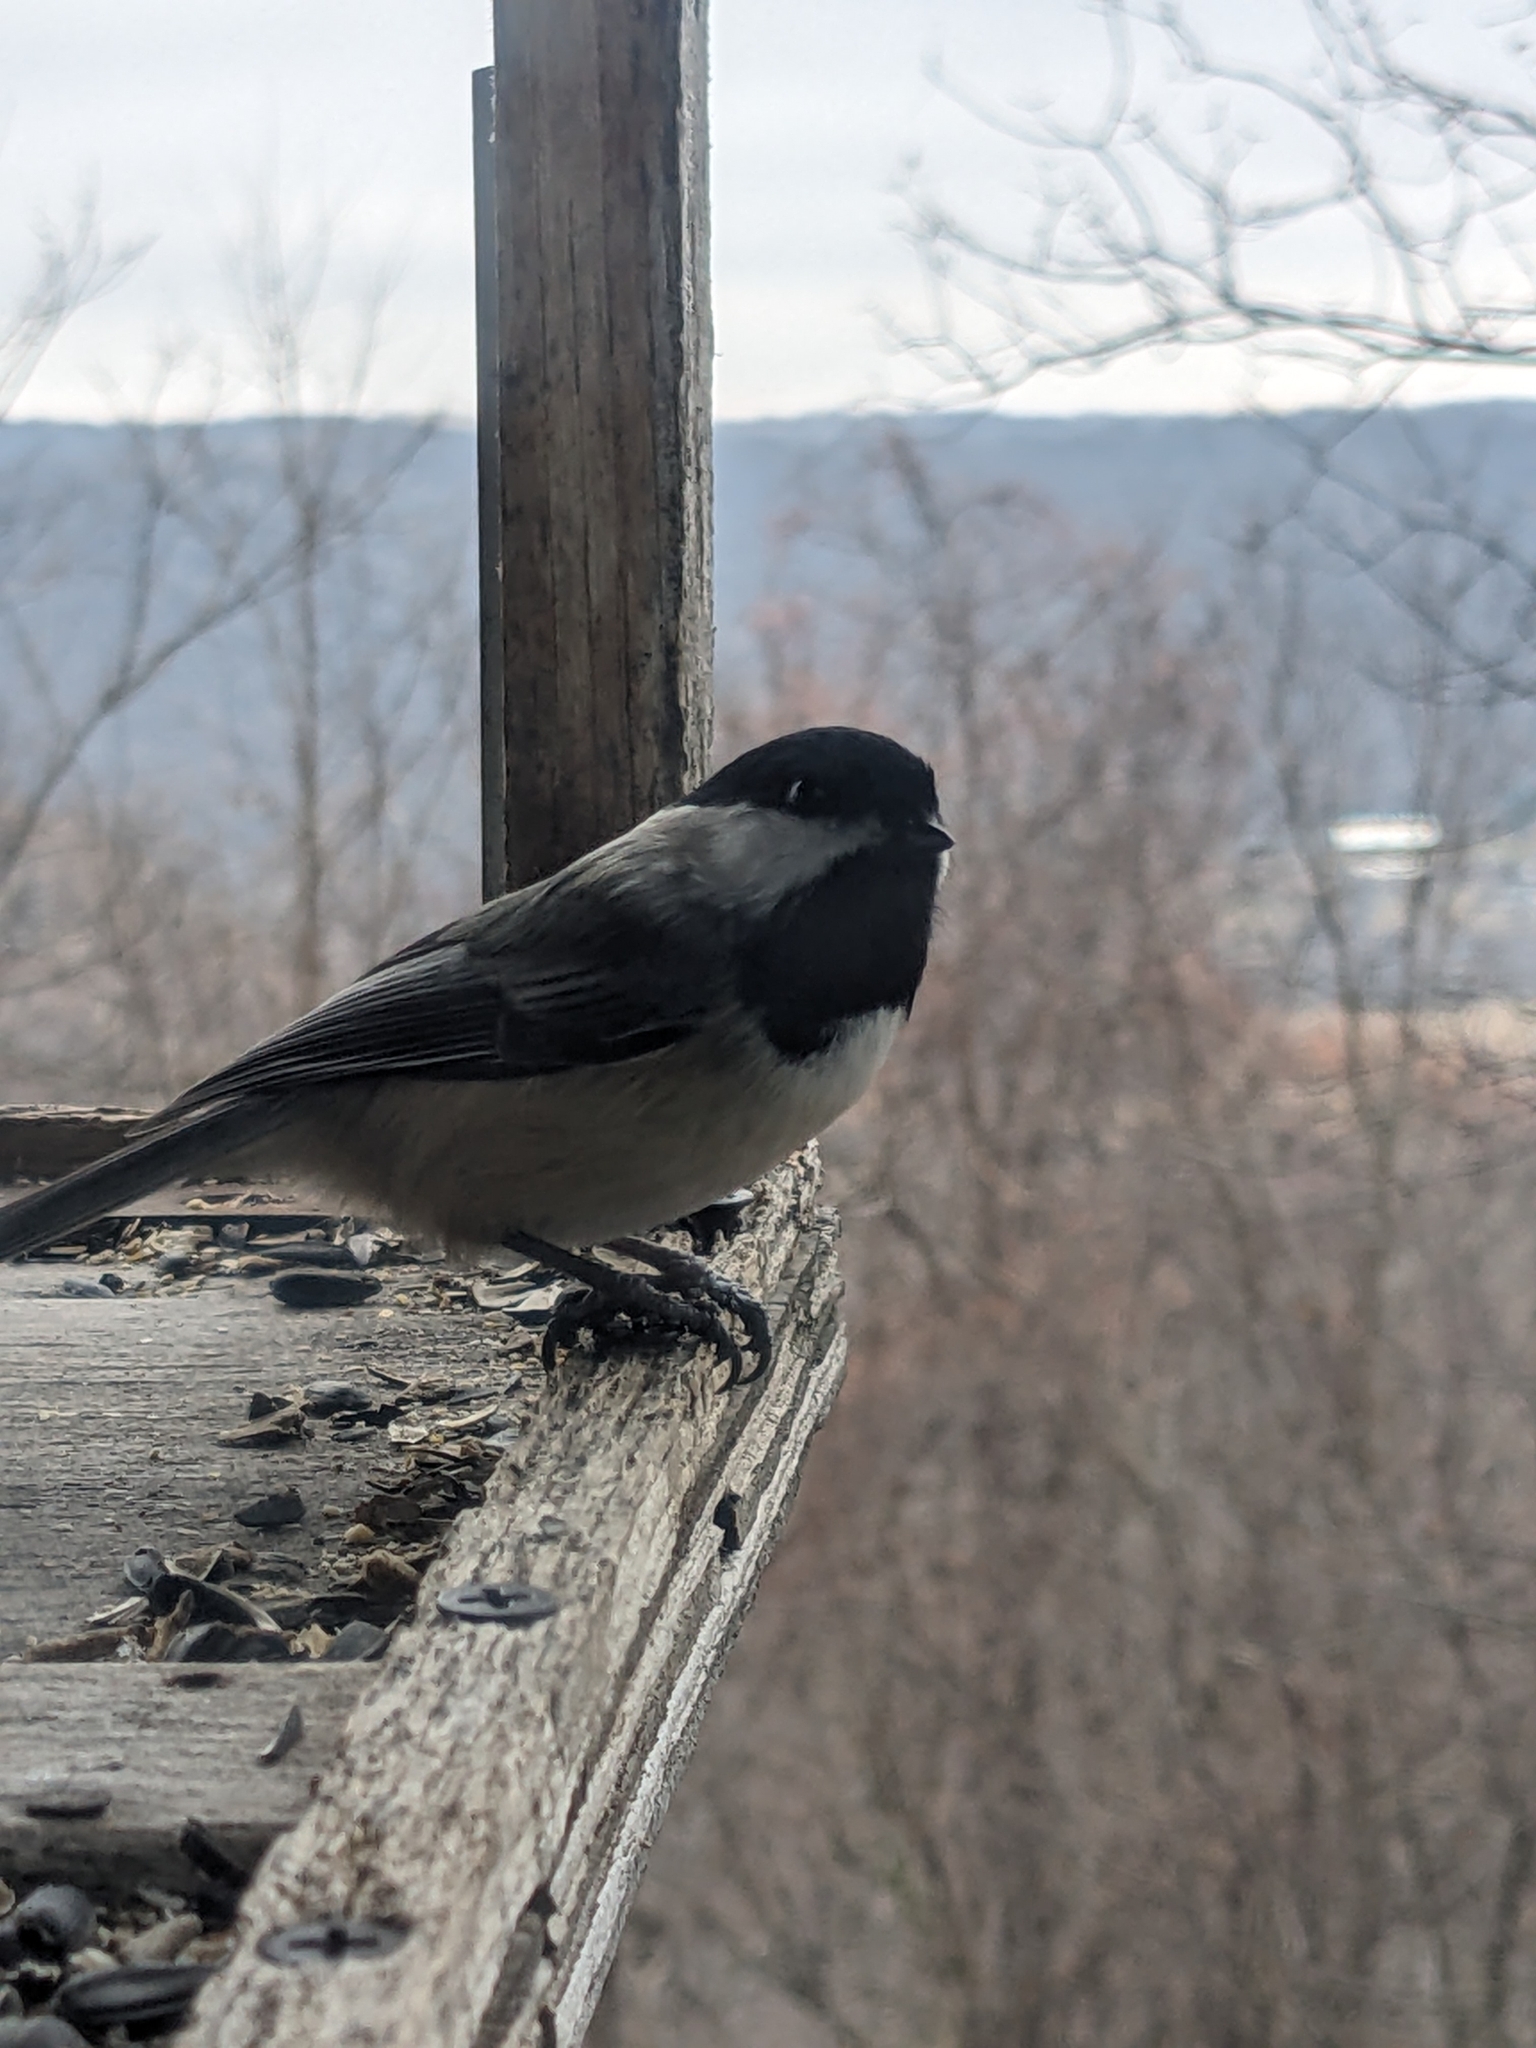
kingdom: Animalia
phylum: Chordata
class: Aves
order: Passeriformes
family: Paridae
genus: Poecile
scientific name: Poecile atricapillus
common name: Black-capped chickadee
